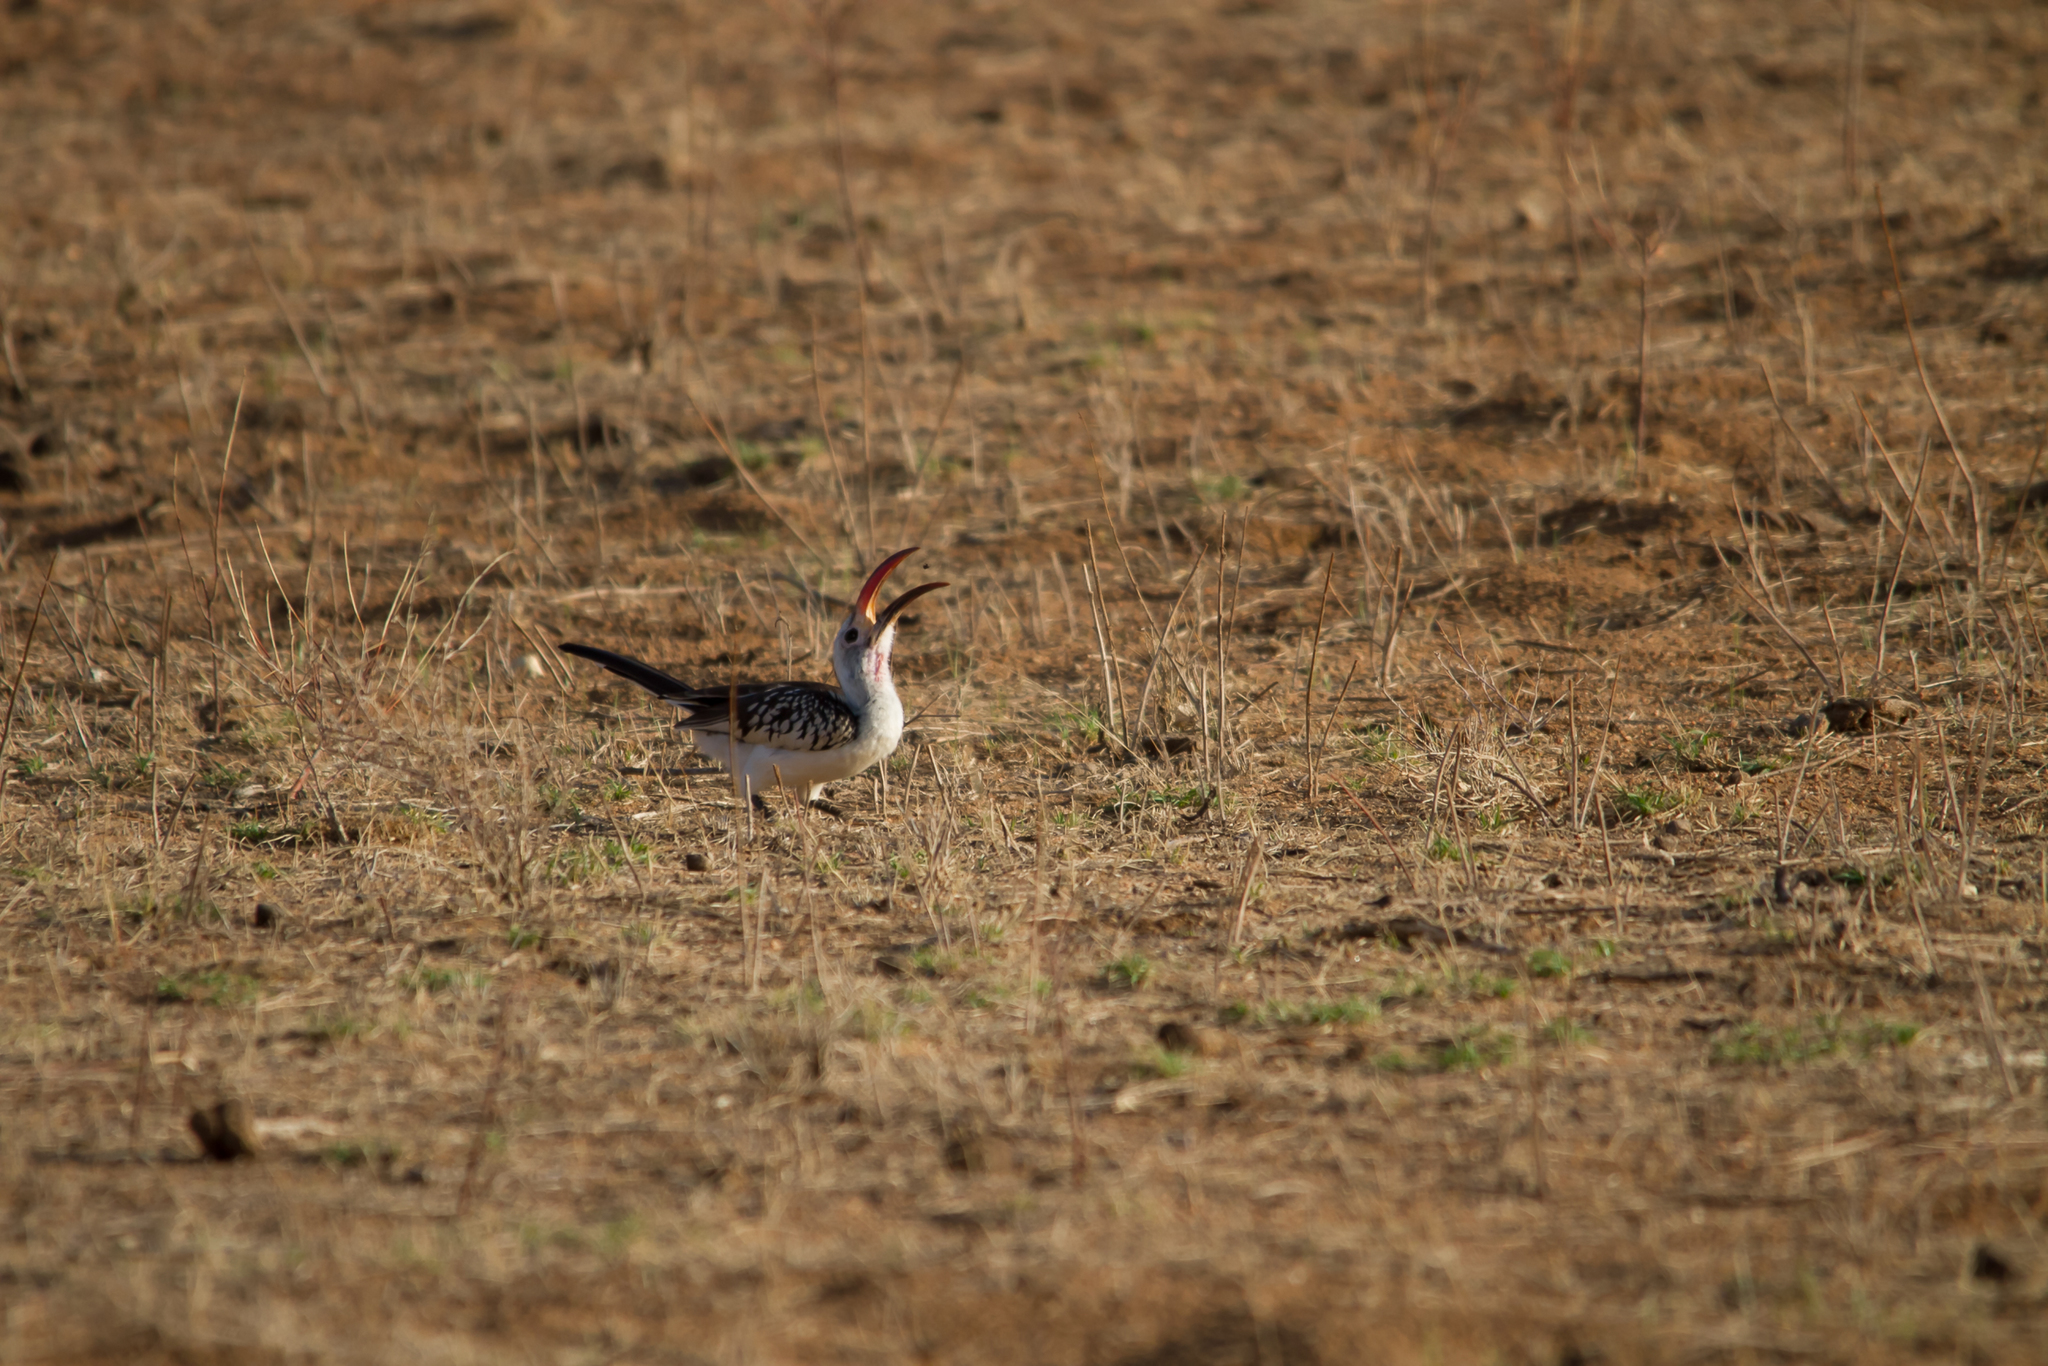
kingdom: Animalia
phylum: Chordata
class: Aves
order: Bucerotiformes
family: Bucerotidae
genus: Tockus
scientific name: Tockus erythrorhynchus
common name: Northern red-billed hornbill
